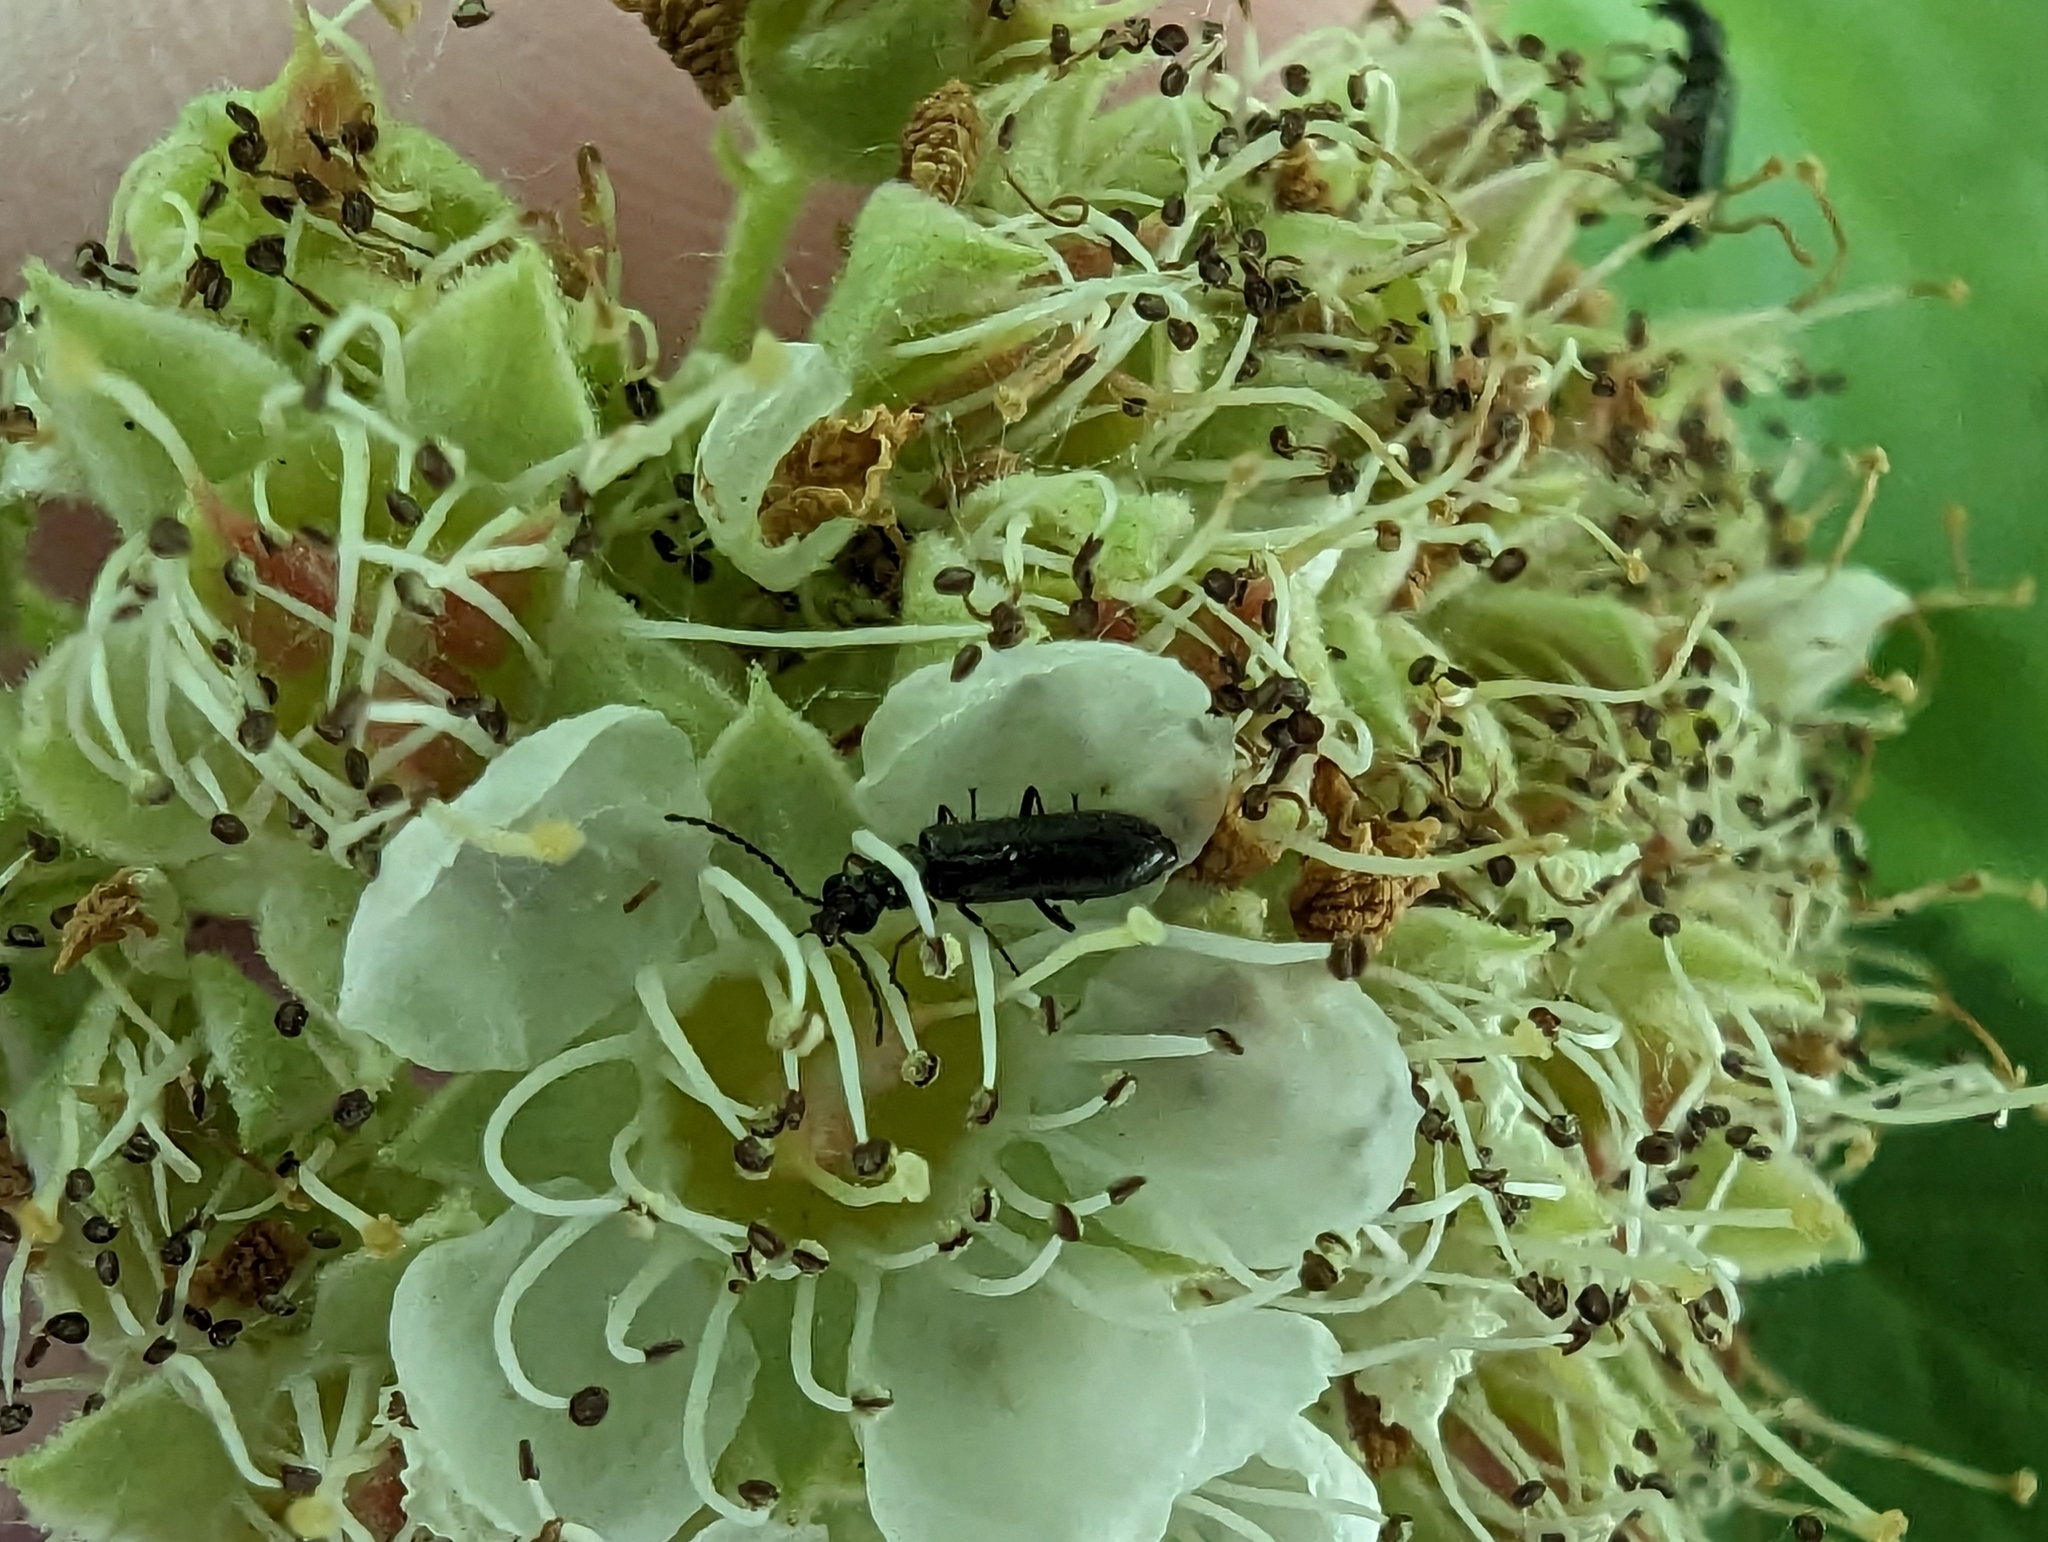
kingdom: Animalia
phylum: Arthropoda
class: Insecta
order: Coleoptera
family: Melyridae
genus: Dasytes
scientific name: Dasytes plumbeus
